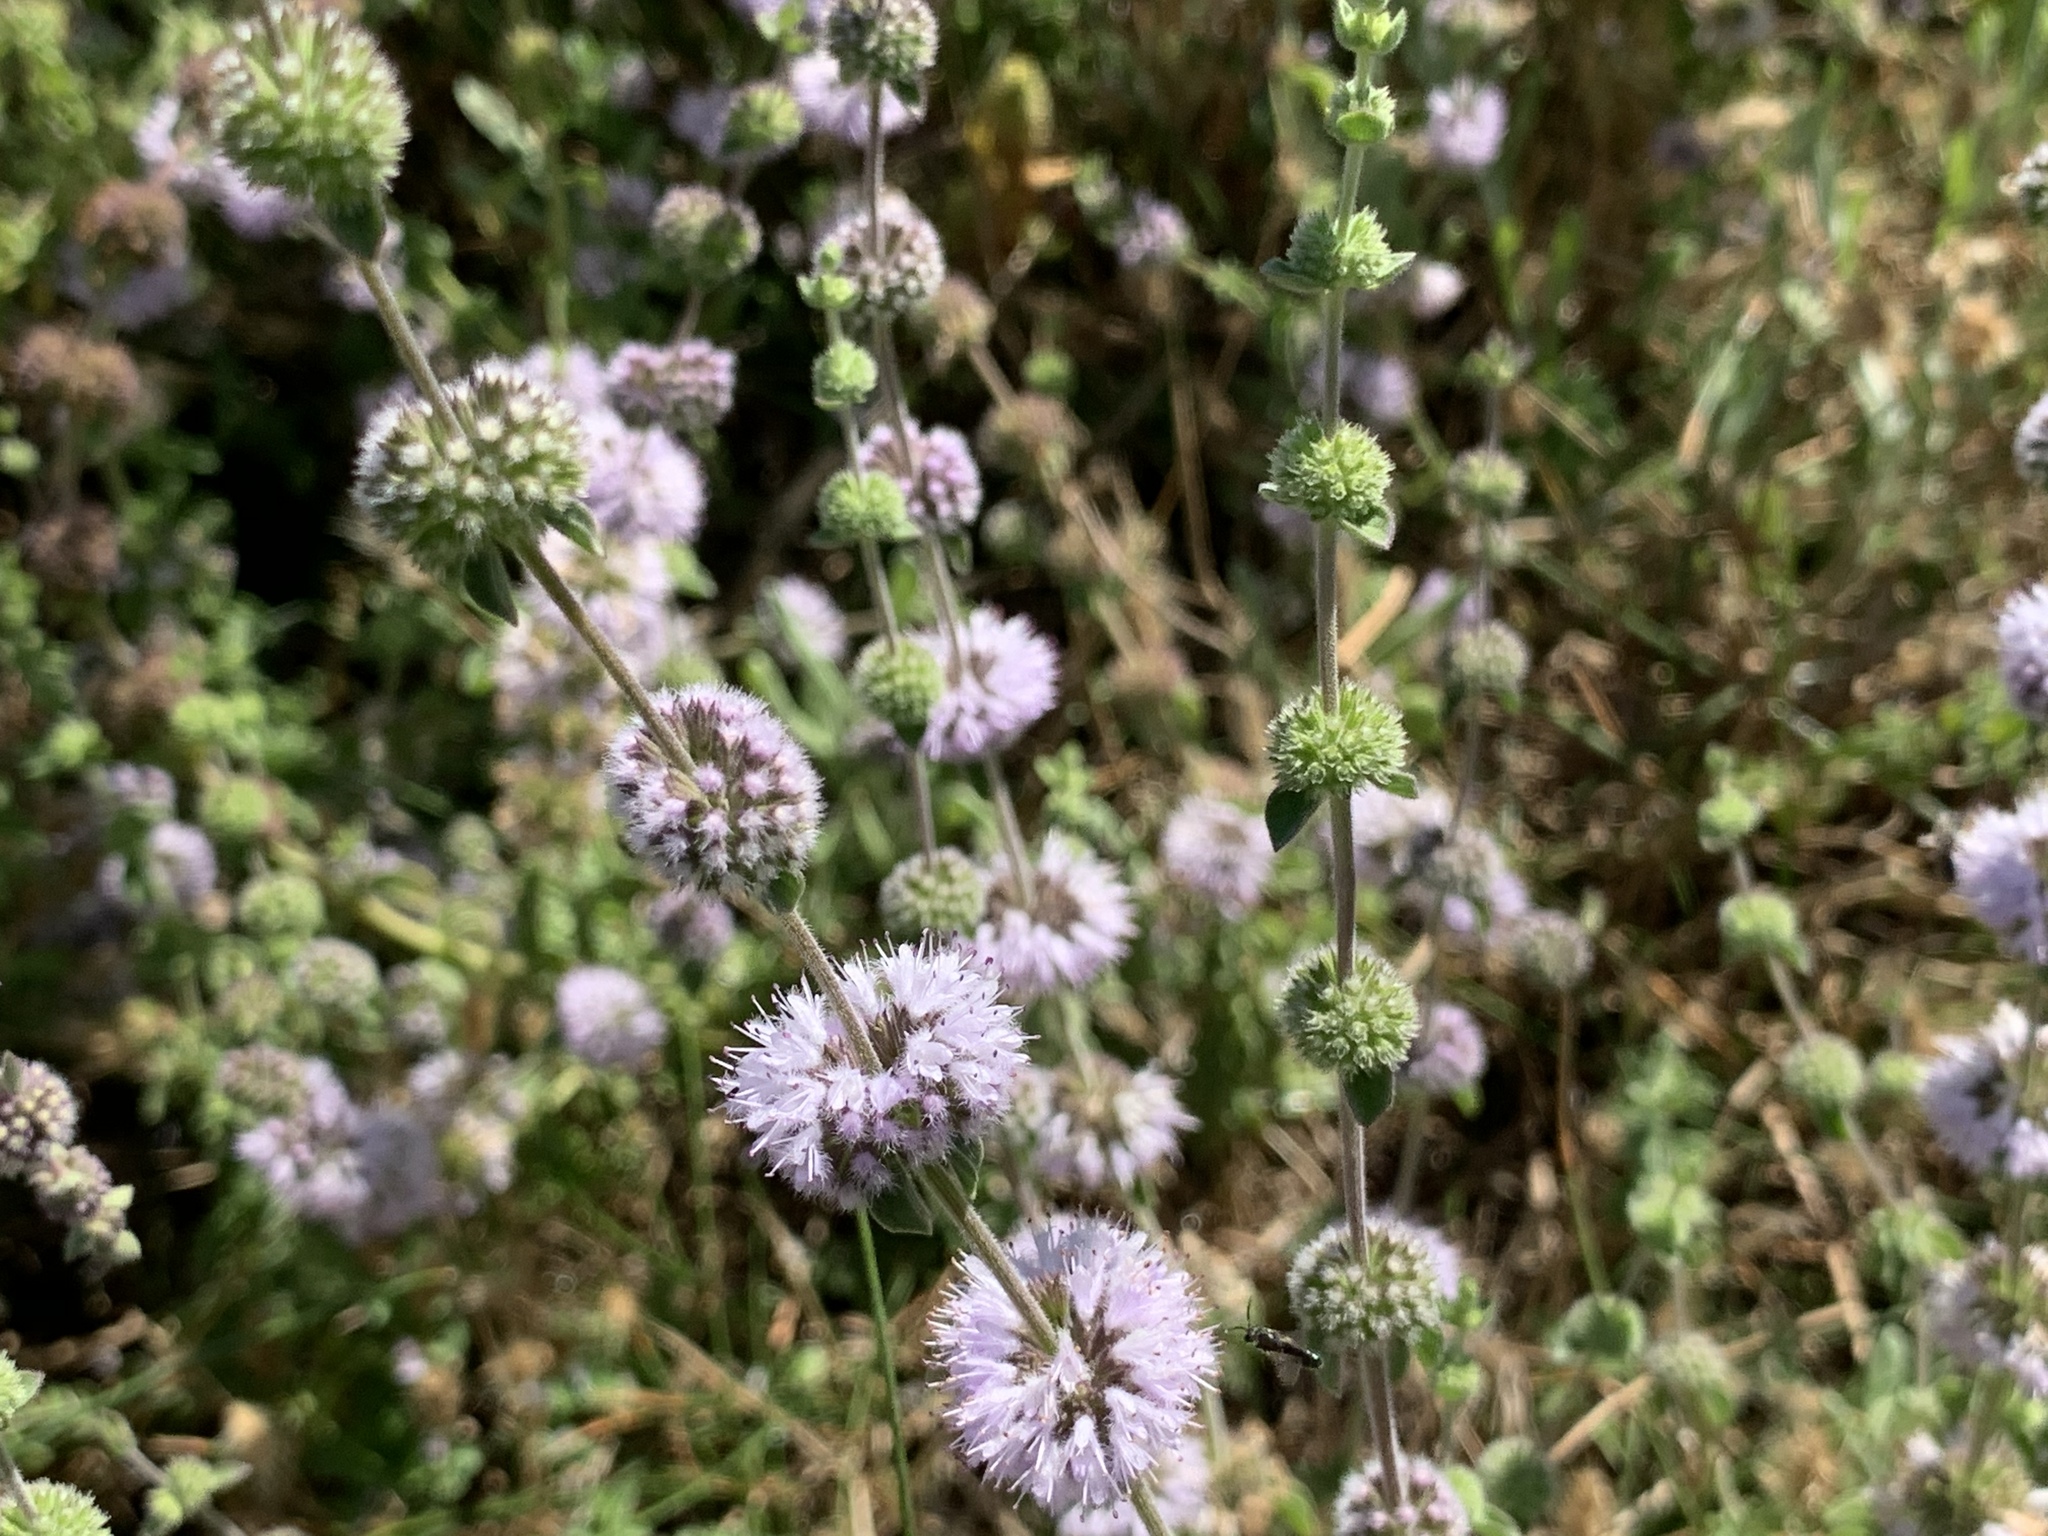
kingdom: Plantae
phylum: Tracheophyta
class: Magnoliopsida
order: Lamiales
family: Lamiaceae
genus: Mentha
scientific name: Mentha pulegium
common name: Pennyroyal
